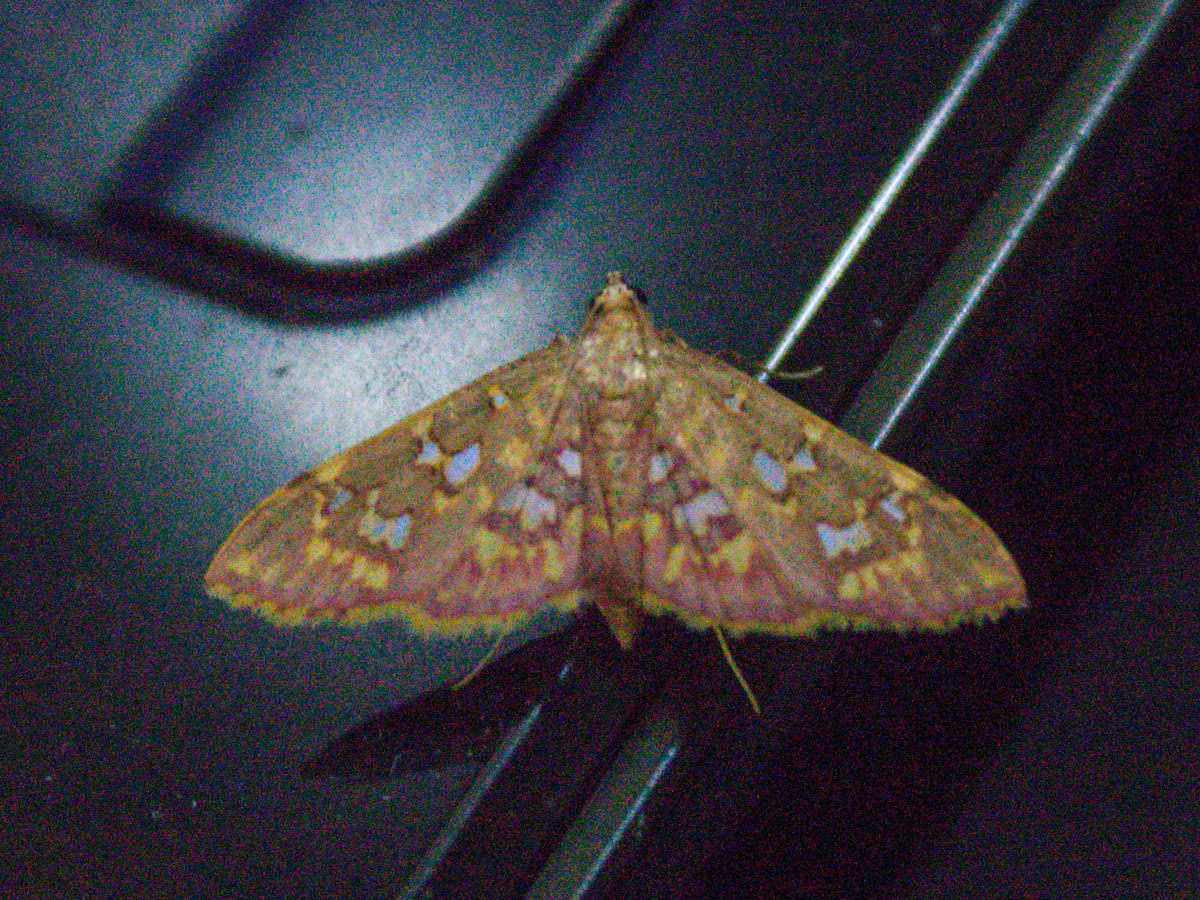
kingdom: Animalia
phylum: Arthropoda
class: Insecta
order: Lepidoptera
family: Crambidae
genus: Ischnurges
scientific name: Ischnurges gratiosalis
